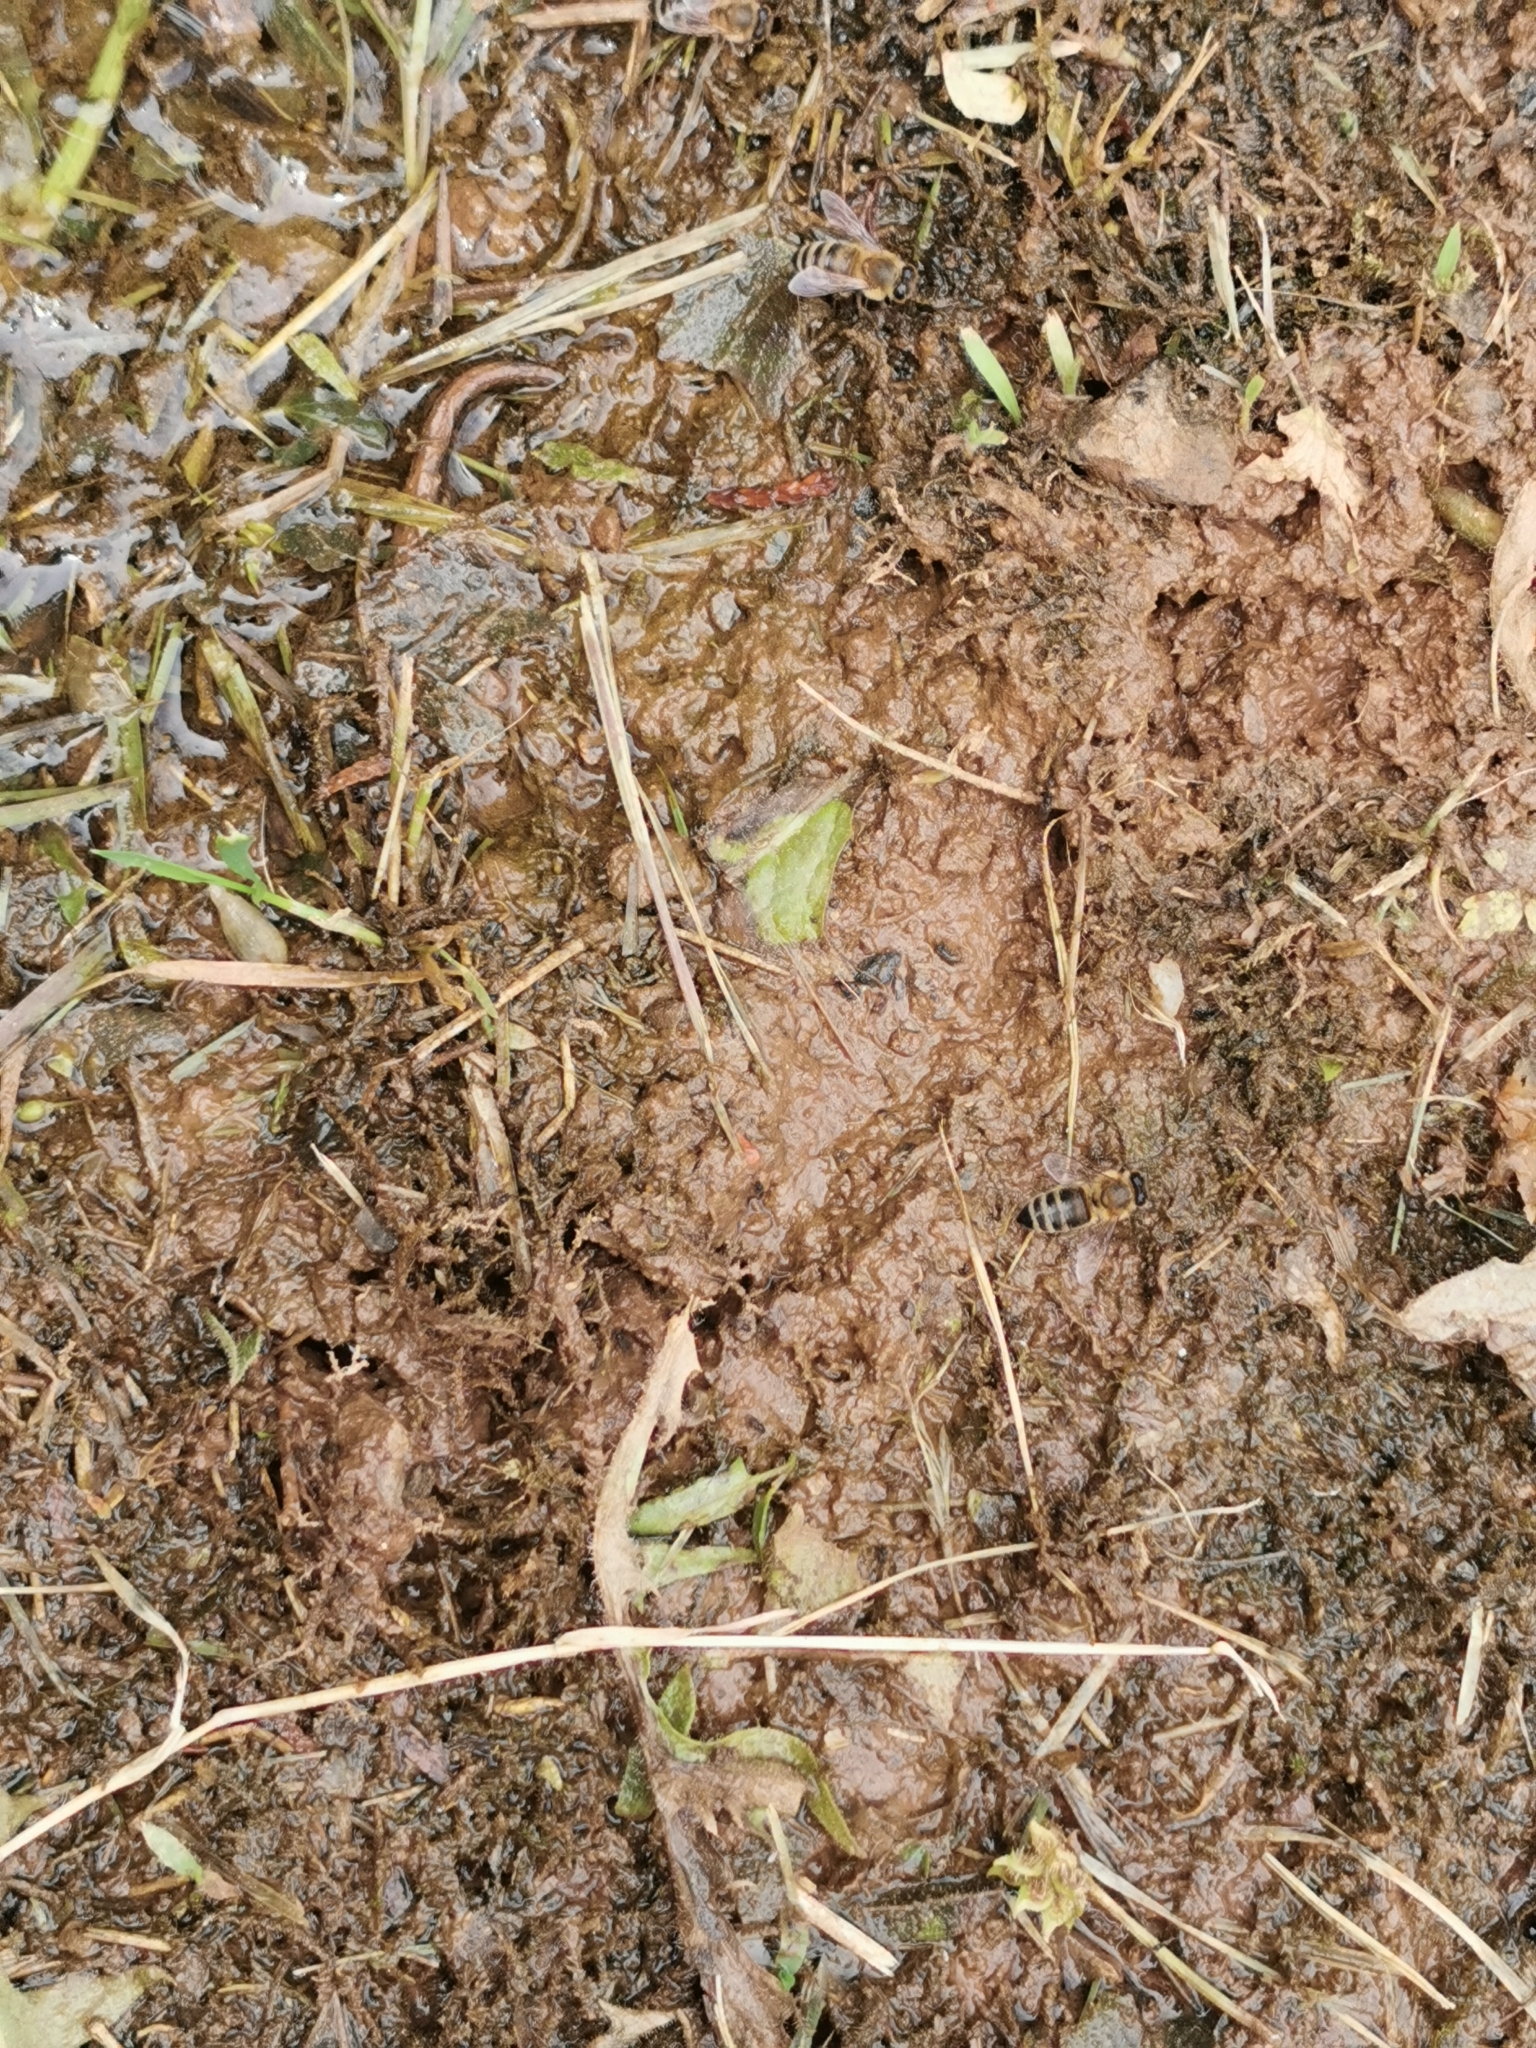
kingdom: Animalia
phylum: Arthropoda
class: Insecta
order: Hymenoptera
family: Apidae
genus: Apis
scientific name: Apis mellifera
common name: Honey bee
